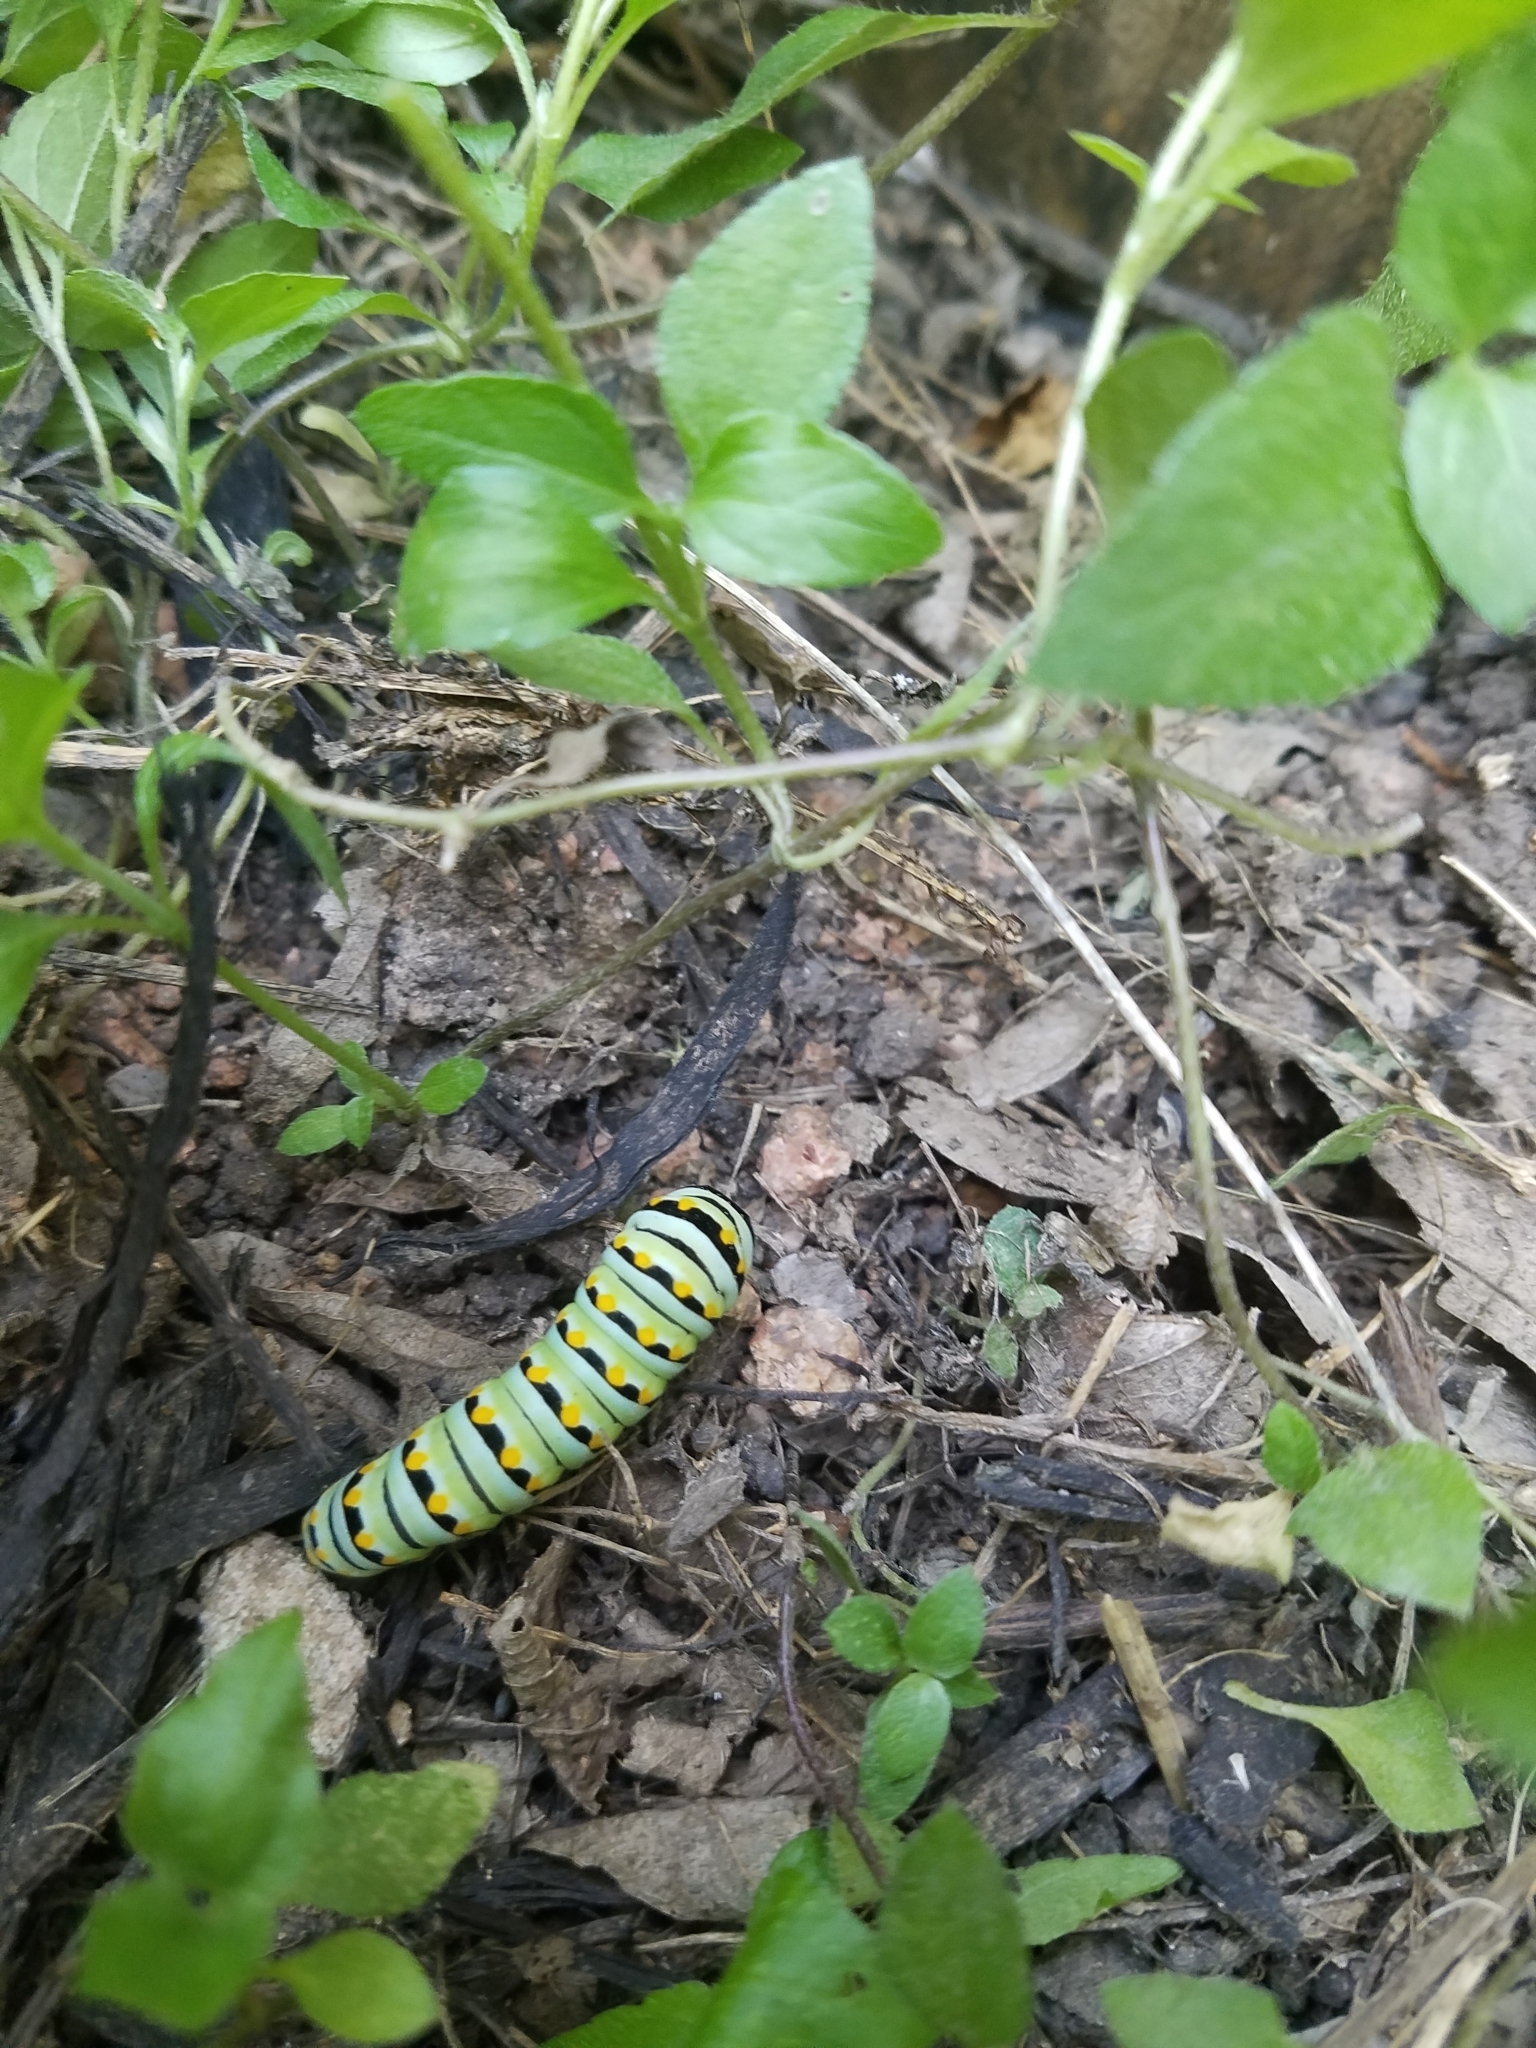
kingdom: Animalia
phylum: Arthropoda
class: Insecta
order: Lepidoptera
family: Papilionidae
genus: Papilio
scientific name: Papilio polyxenes
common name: Black swallowtail
